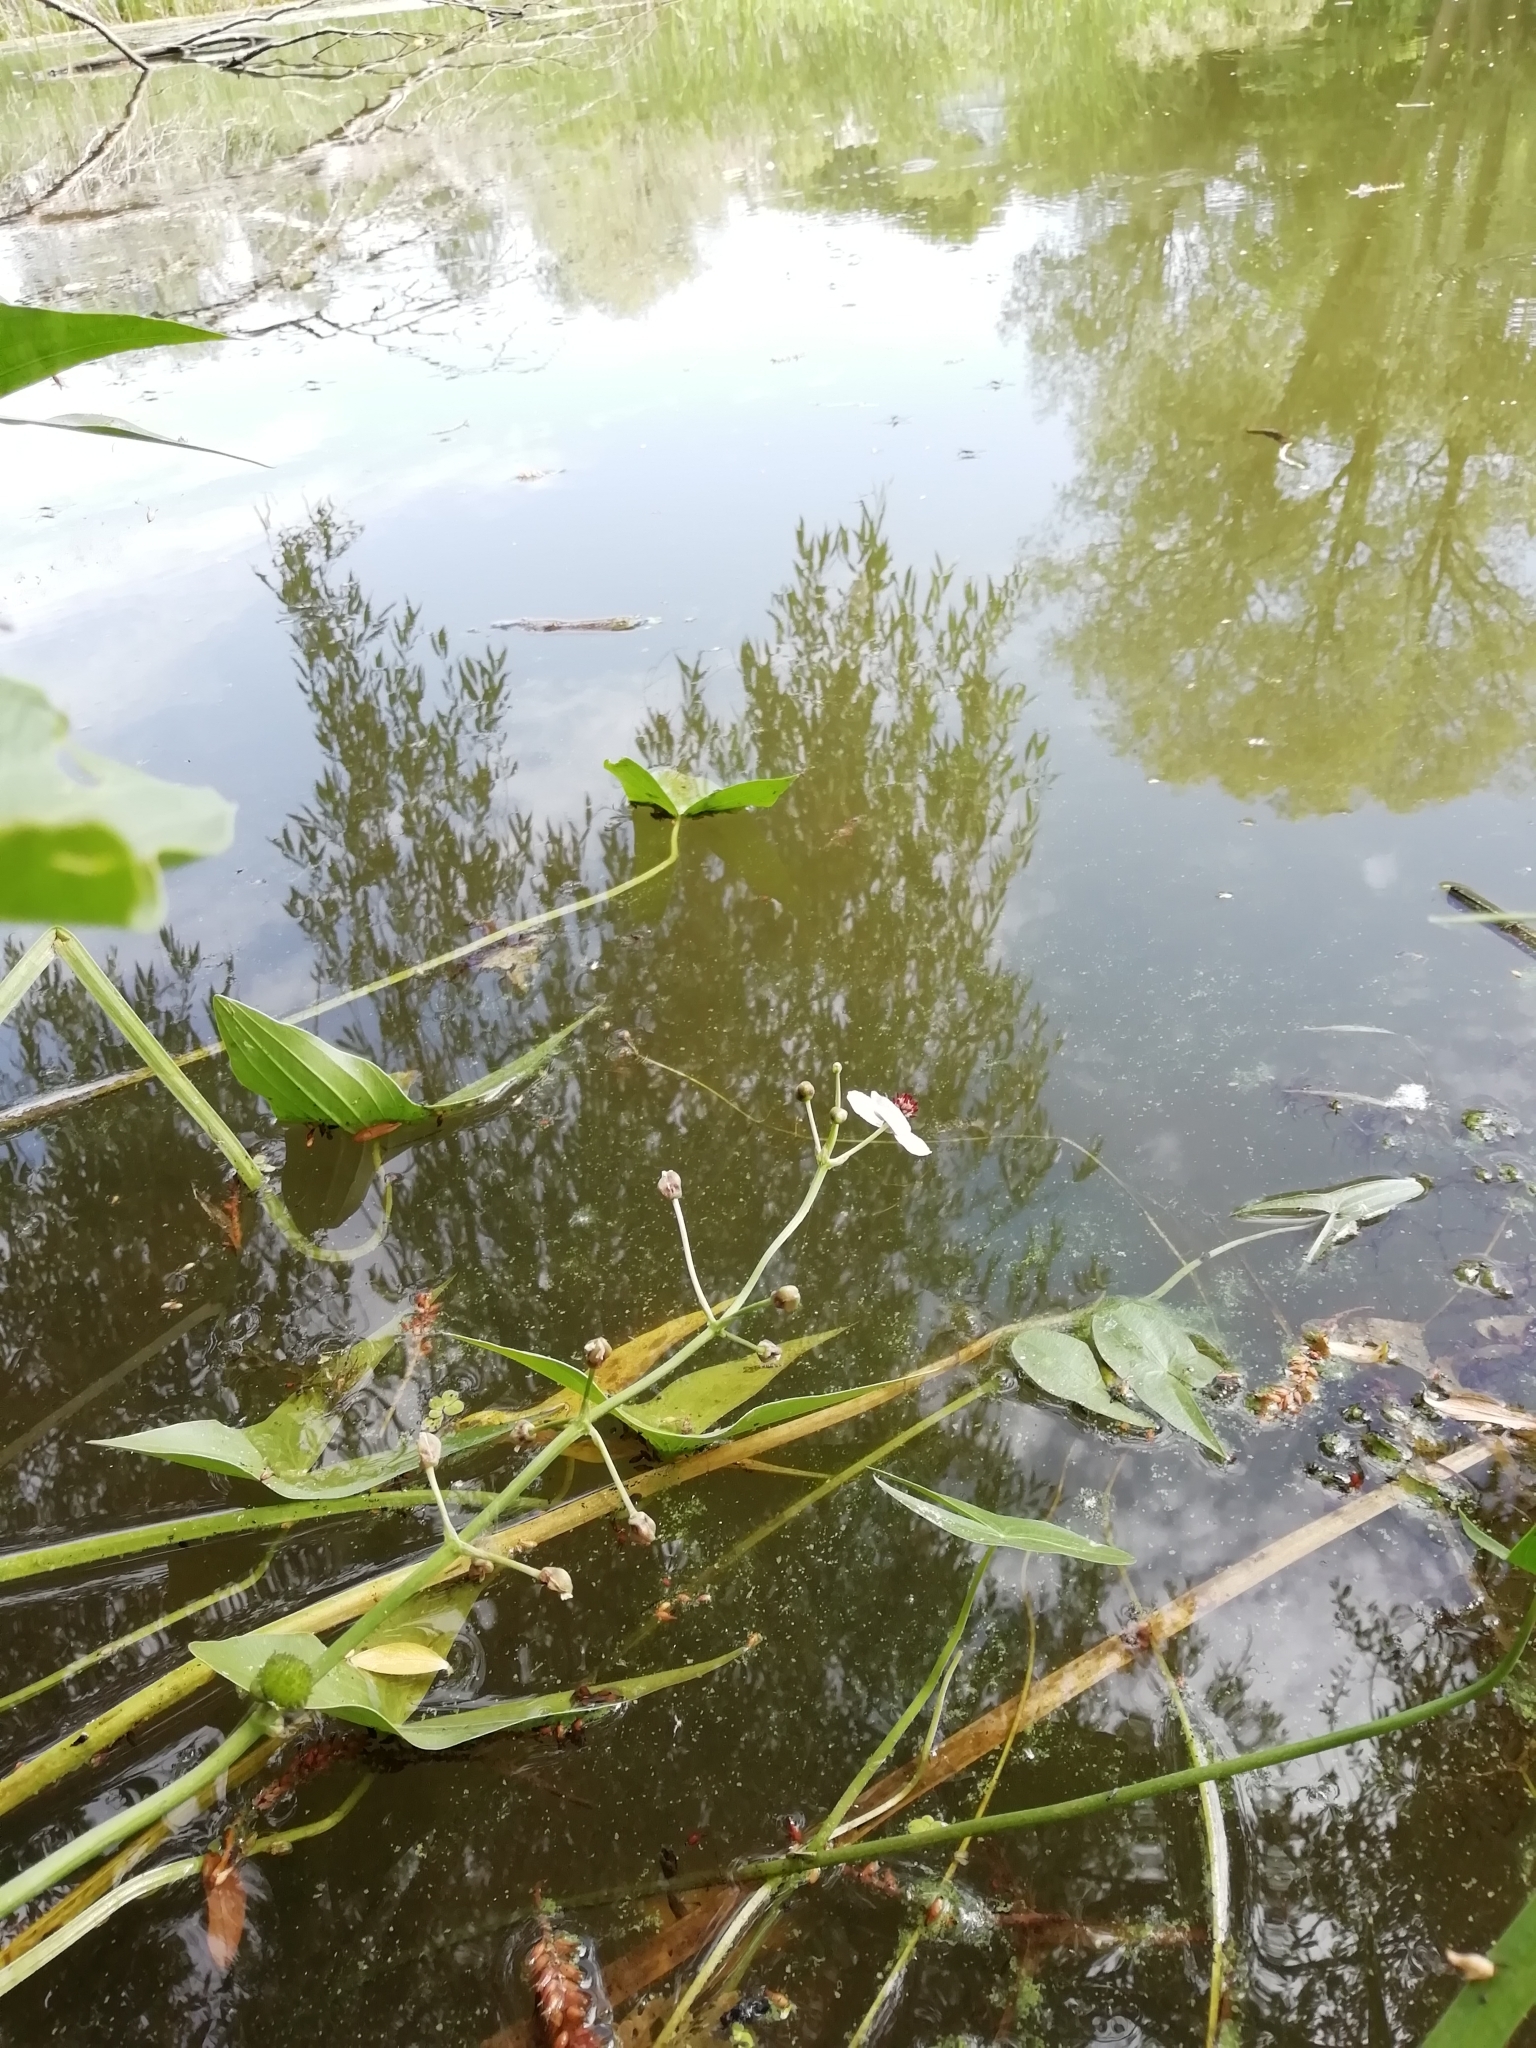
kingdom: Plantae
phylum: Tracheophyta
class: Liliopsida
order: Alismatales
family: Alismataceae
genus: Sagittaria
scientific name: Sagittaria sagittifolia
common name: Arrowhead
